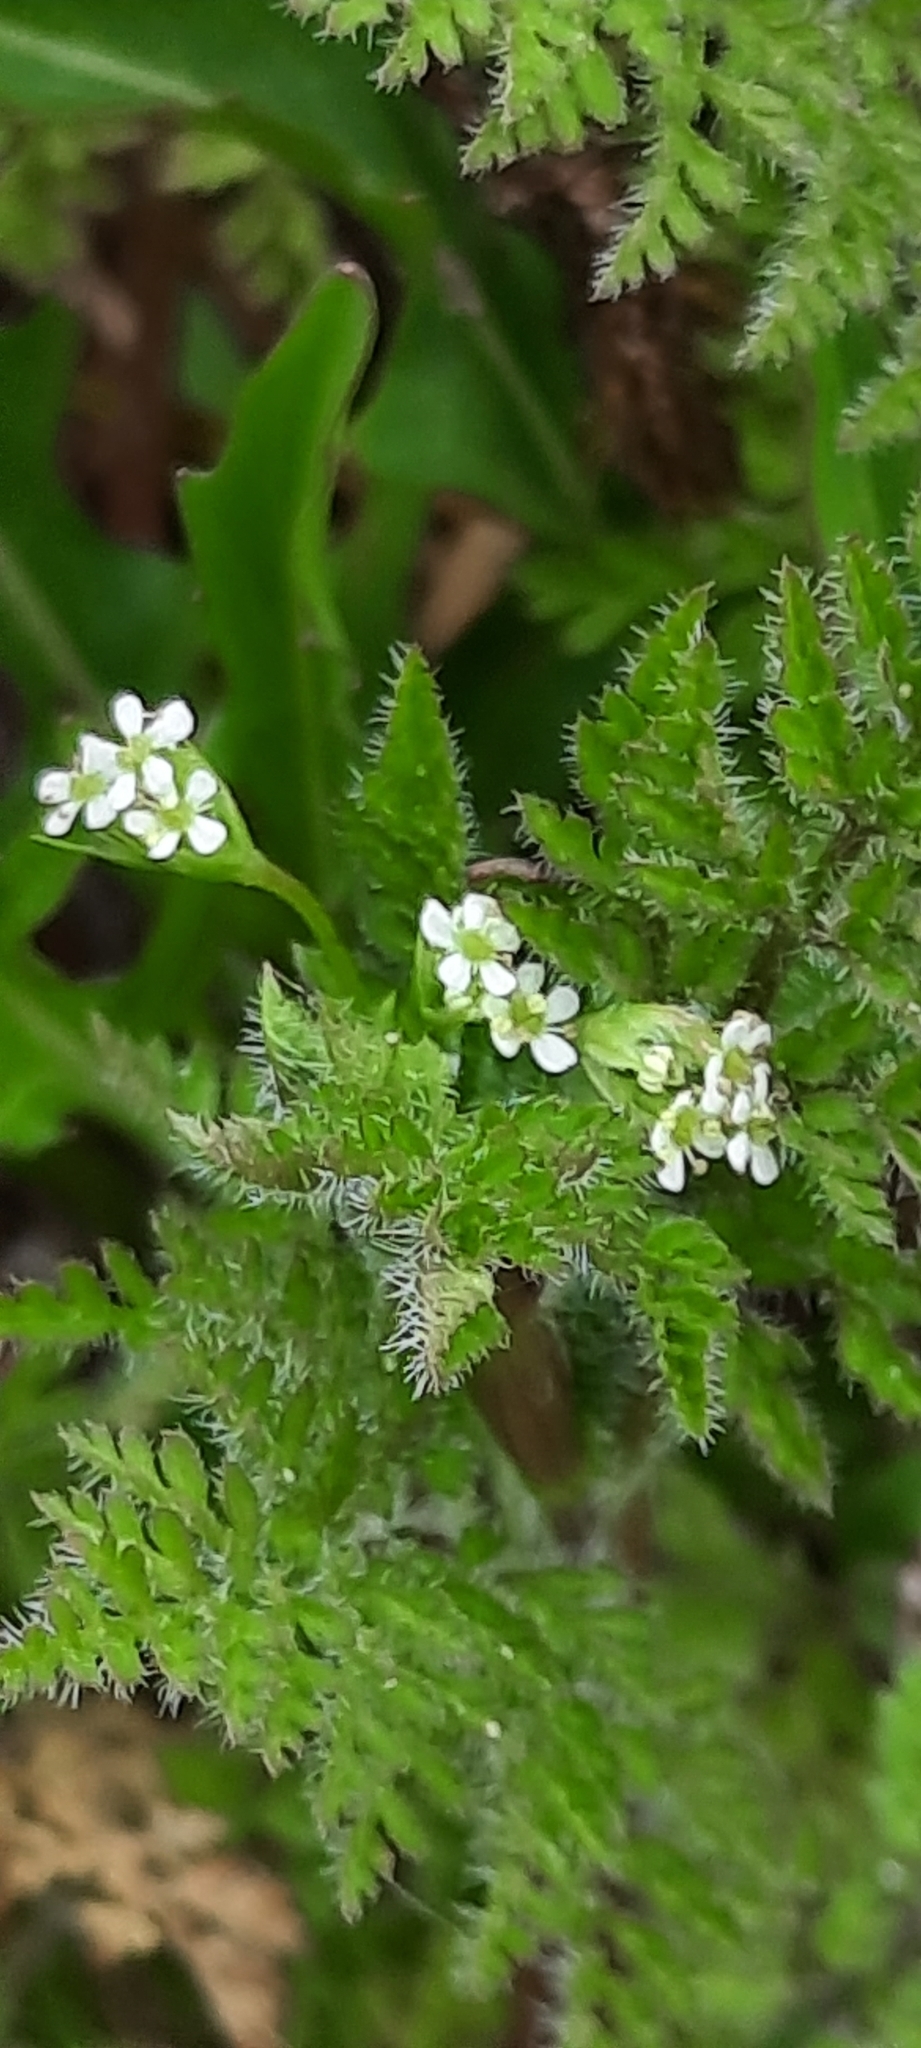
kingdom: Plantae
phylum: Tracheophyta
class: Magnoliopsida
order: Apiales
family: Apiaceae
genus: Anthriscus
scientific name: Anthriscus caucalis
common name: Bur chervil
